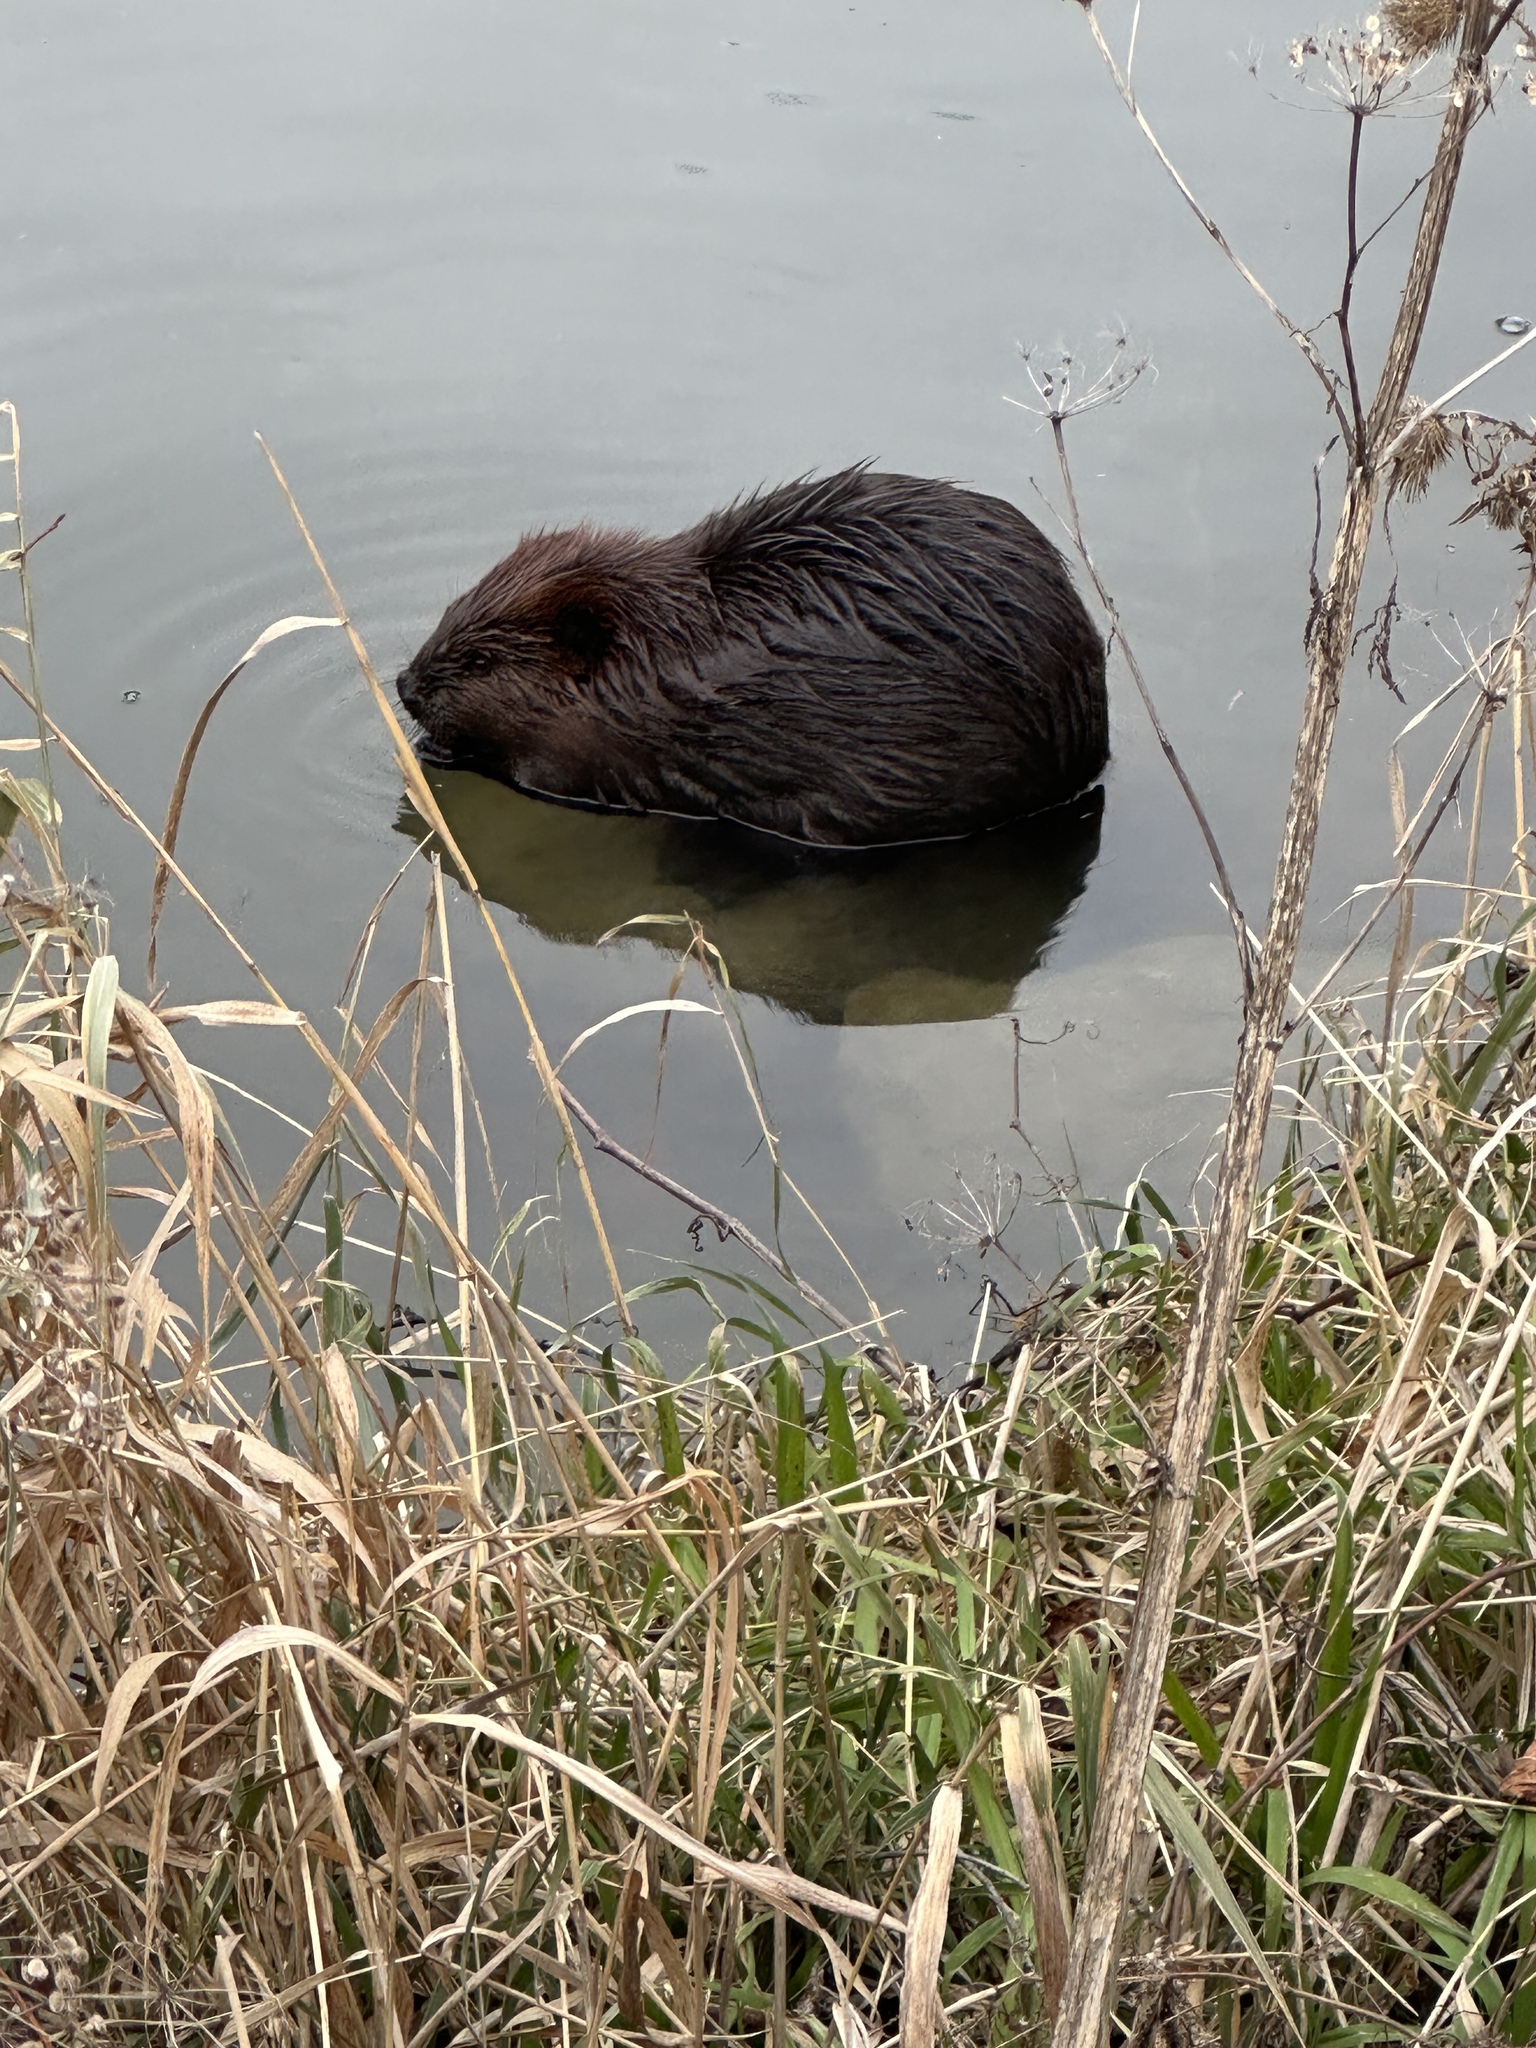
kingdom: Animalia
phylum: Chordata
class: Mammalia
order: Rodentia
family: Castoridae
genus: Castor
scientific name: Castor canadensis
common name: American beaver
